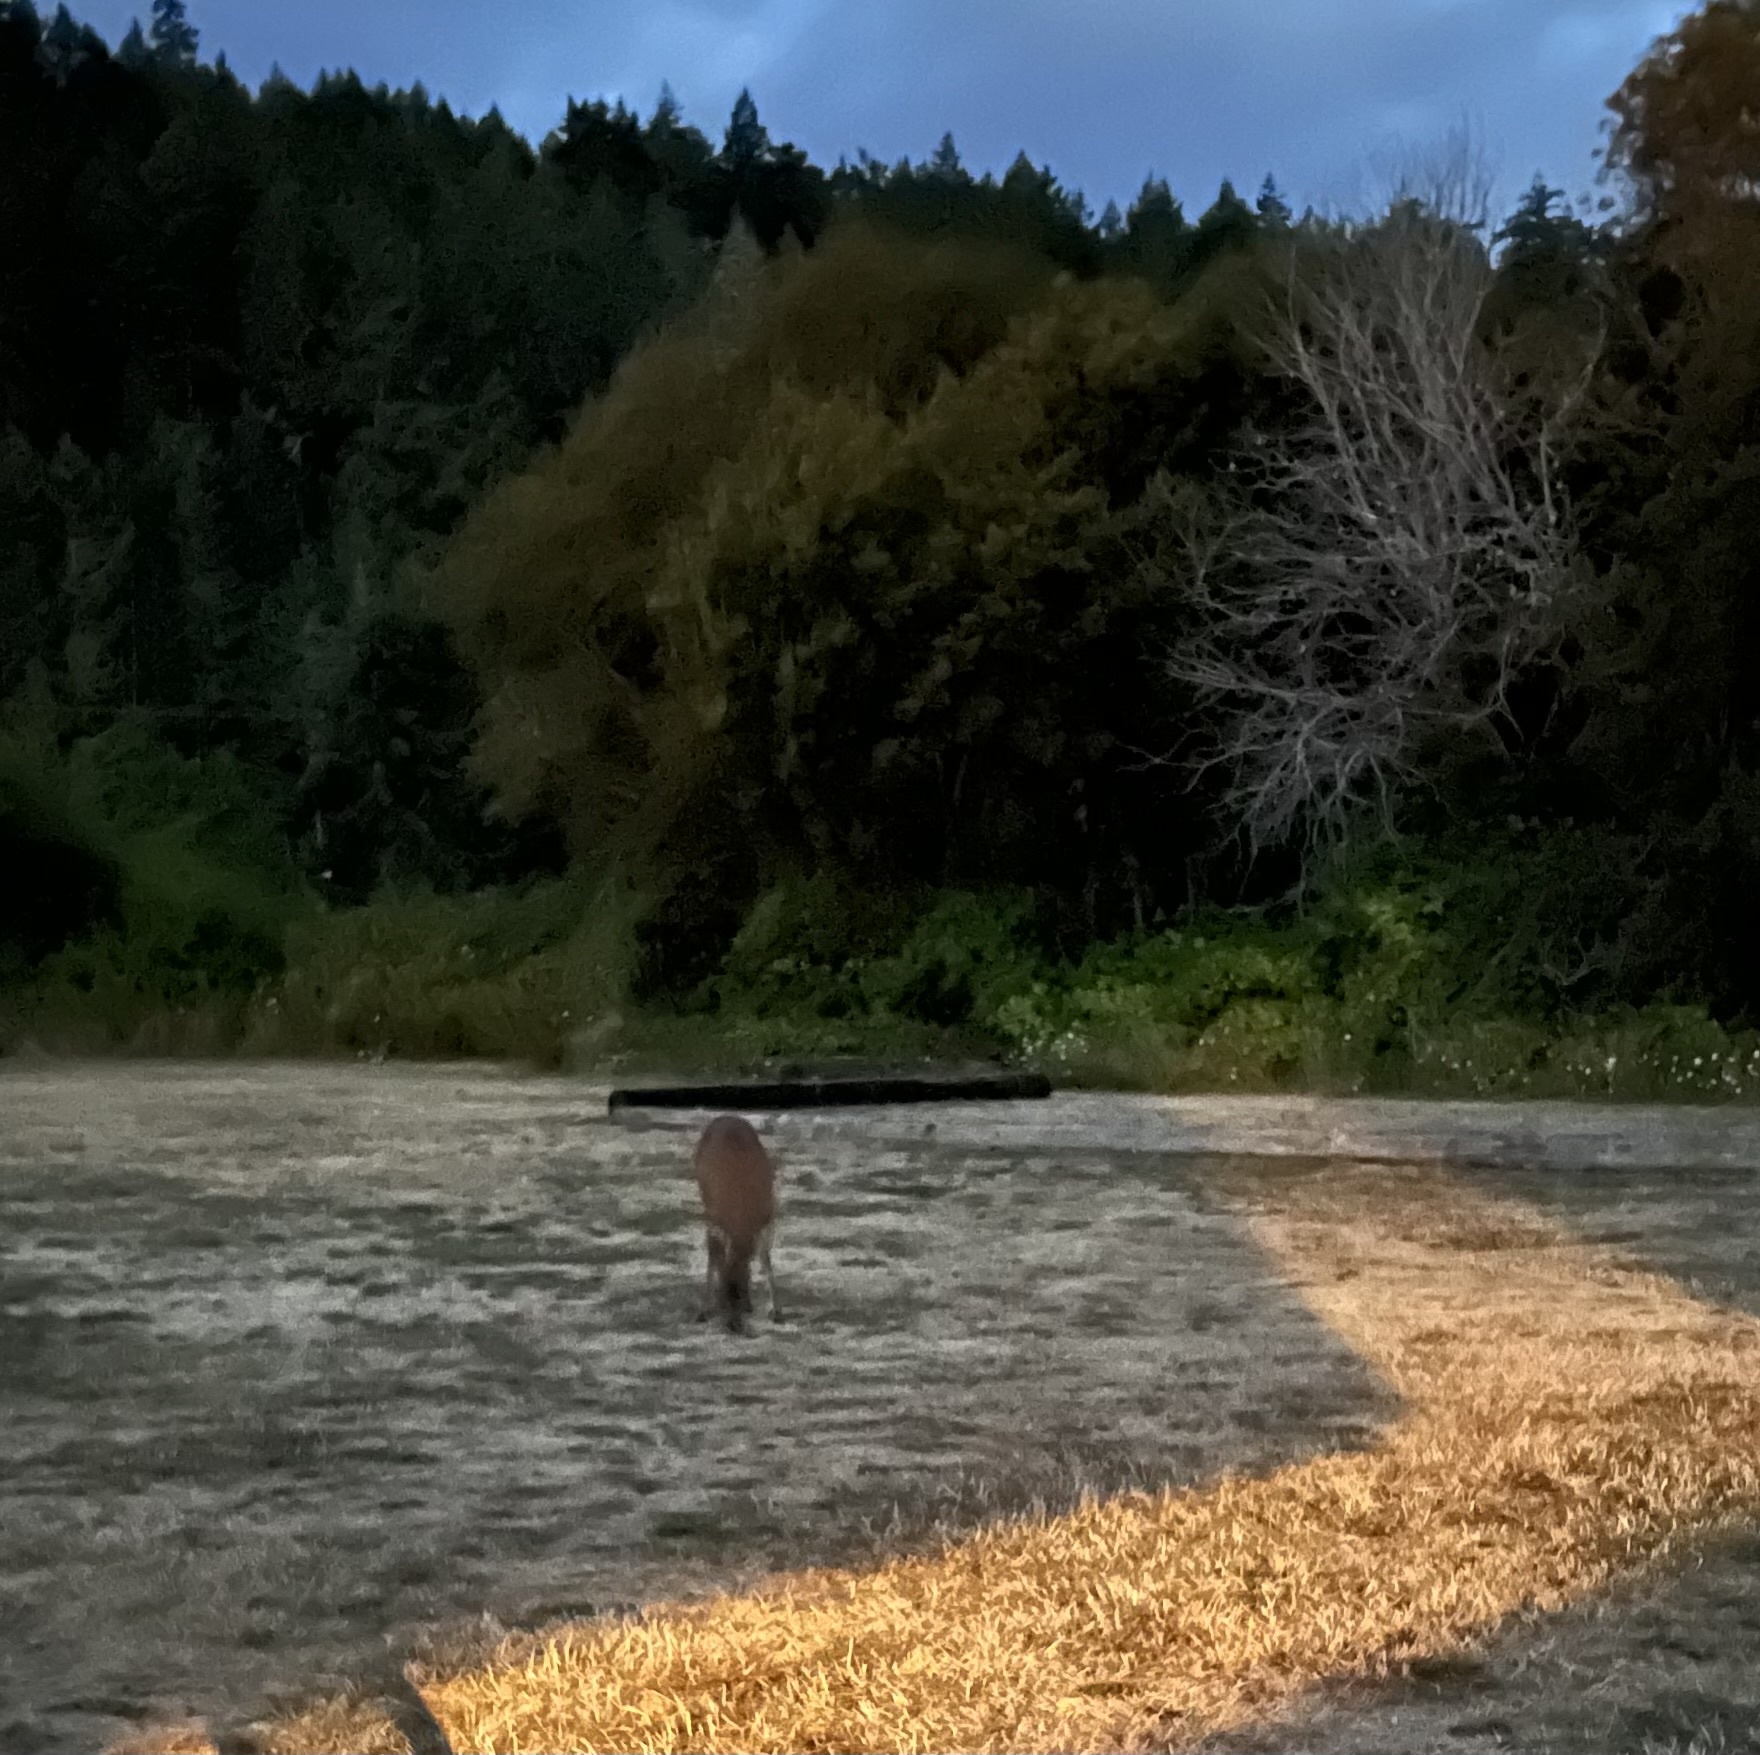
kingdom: Animalia
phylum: Chordata
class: Mammalia
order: Artiodactyla
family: Cervidae
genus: Odocoileus
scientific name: Odocoileus hemionus
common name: Mule deer
